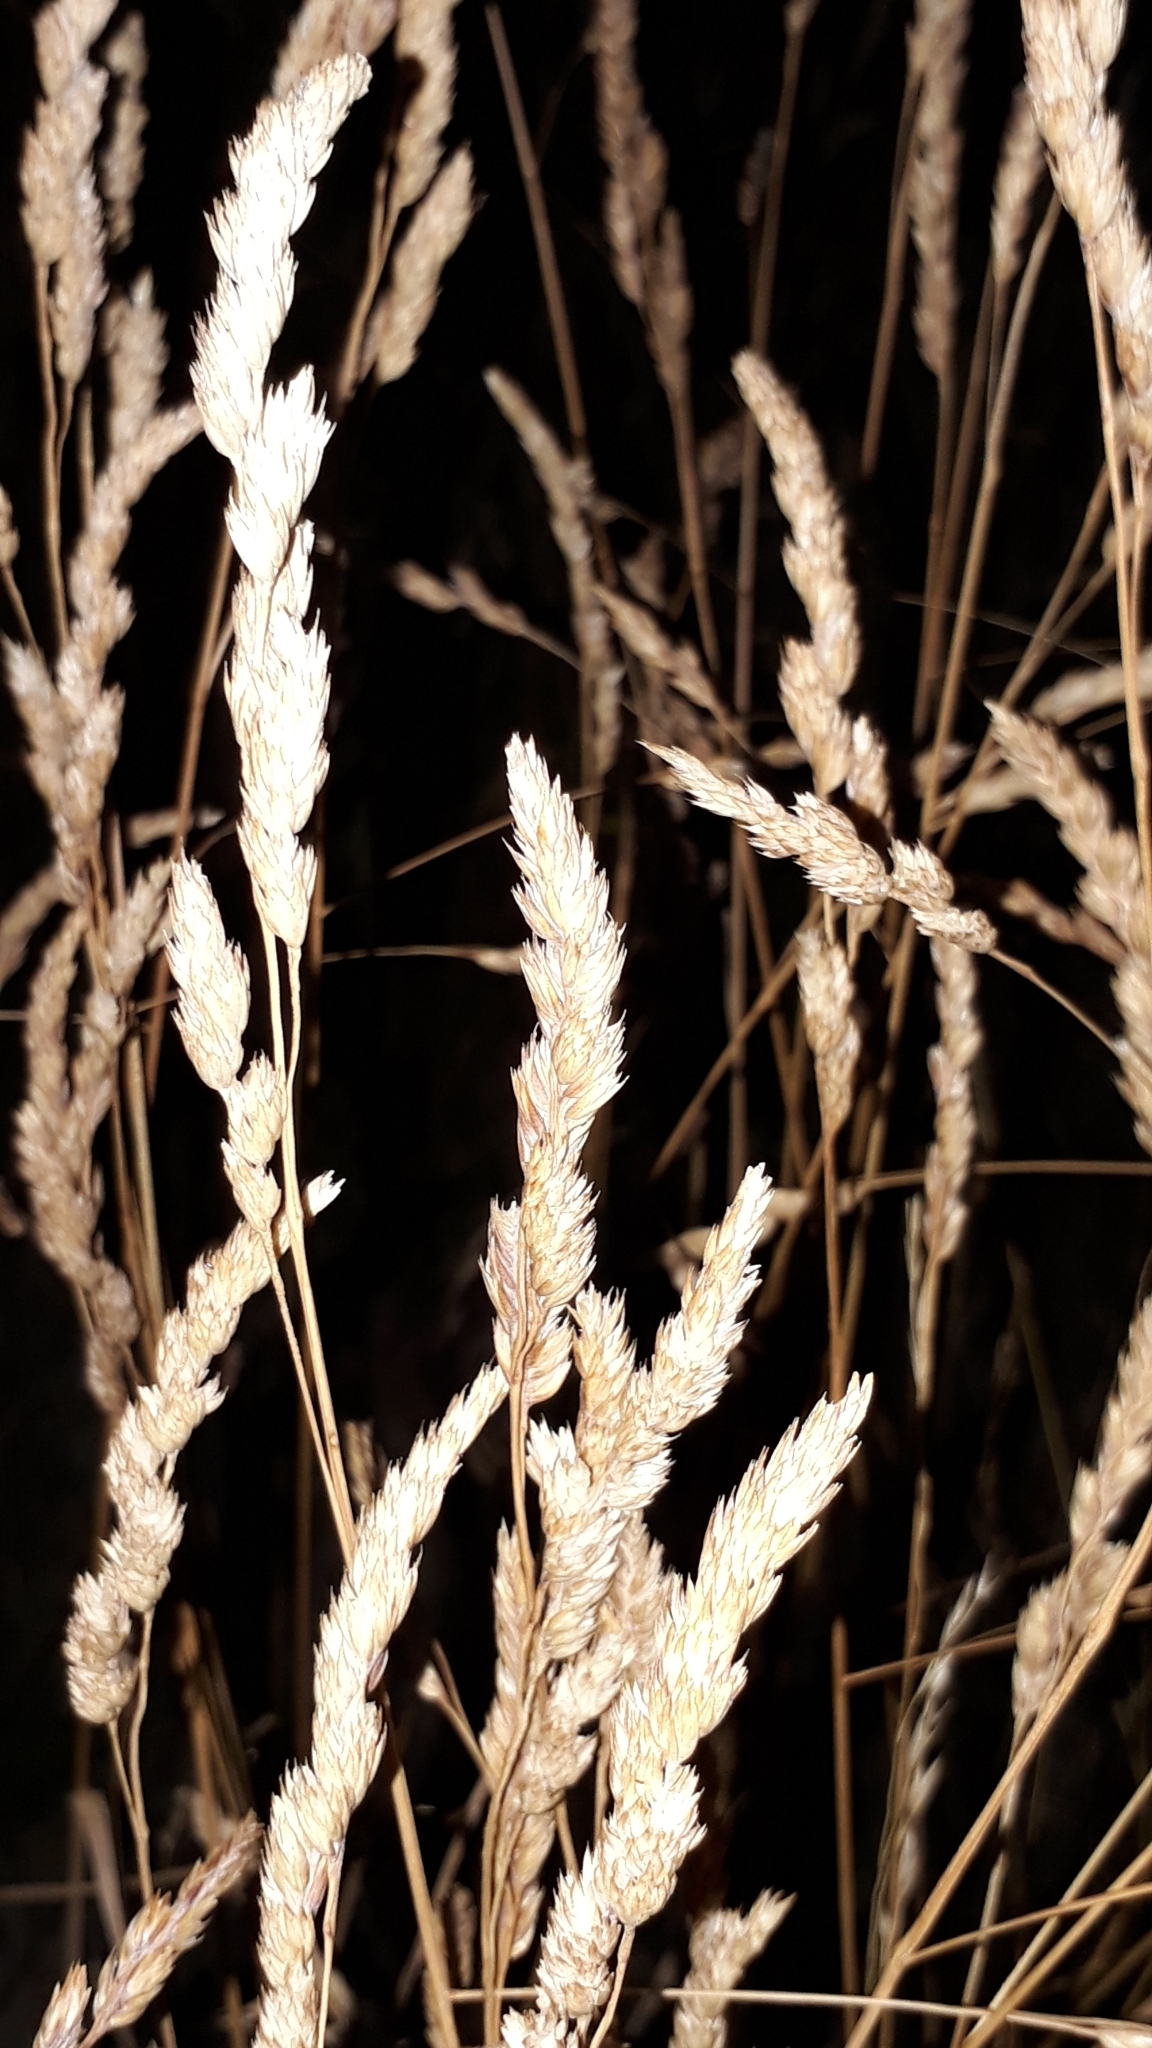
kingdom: Plantae
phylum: Tracheophyta
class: Liliopsida
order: Poales
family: Poaceae
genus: Dactylis
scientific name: Dactylis glomerata
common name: Orchardgrass
